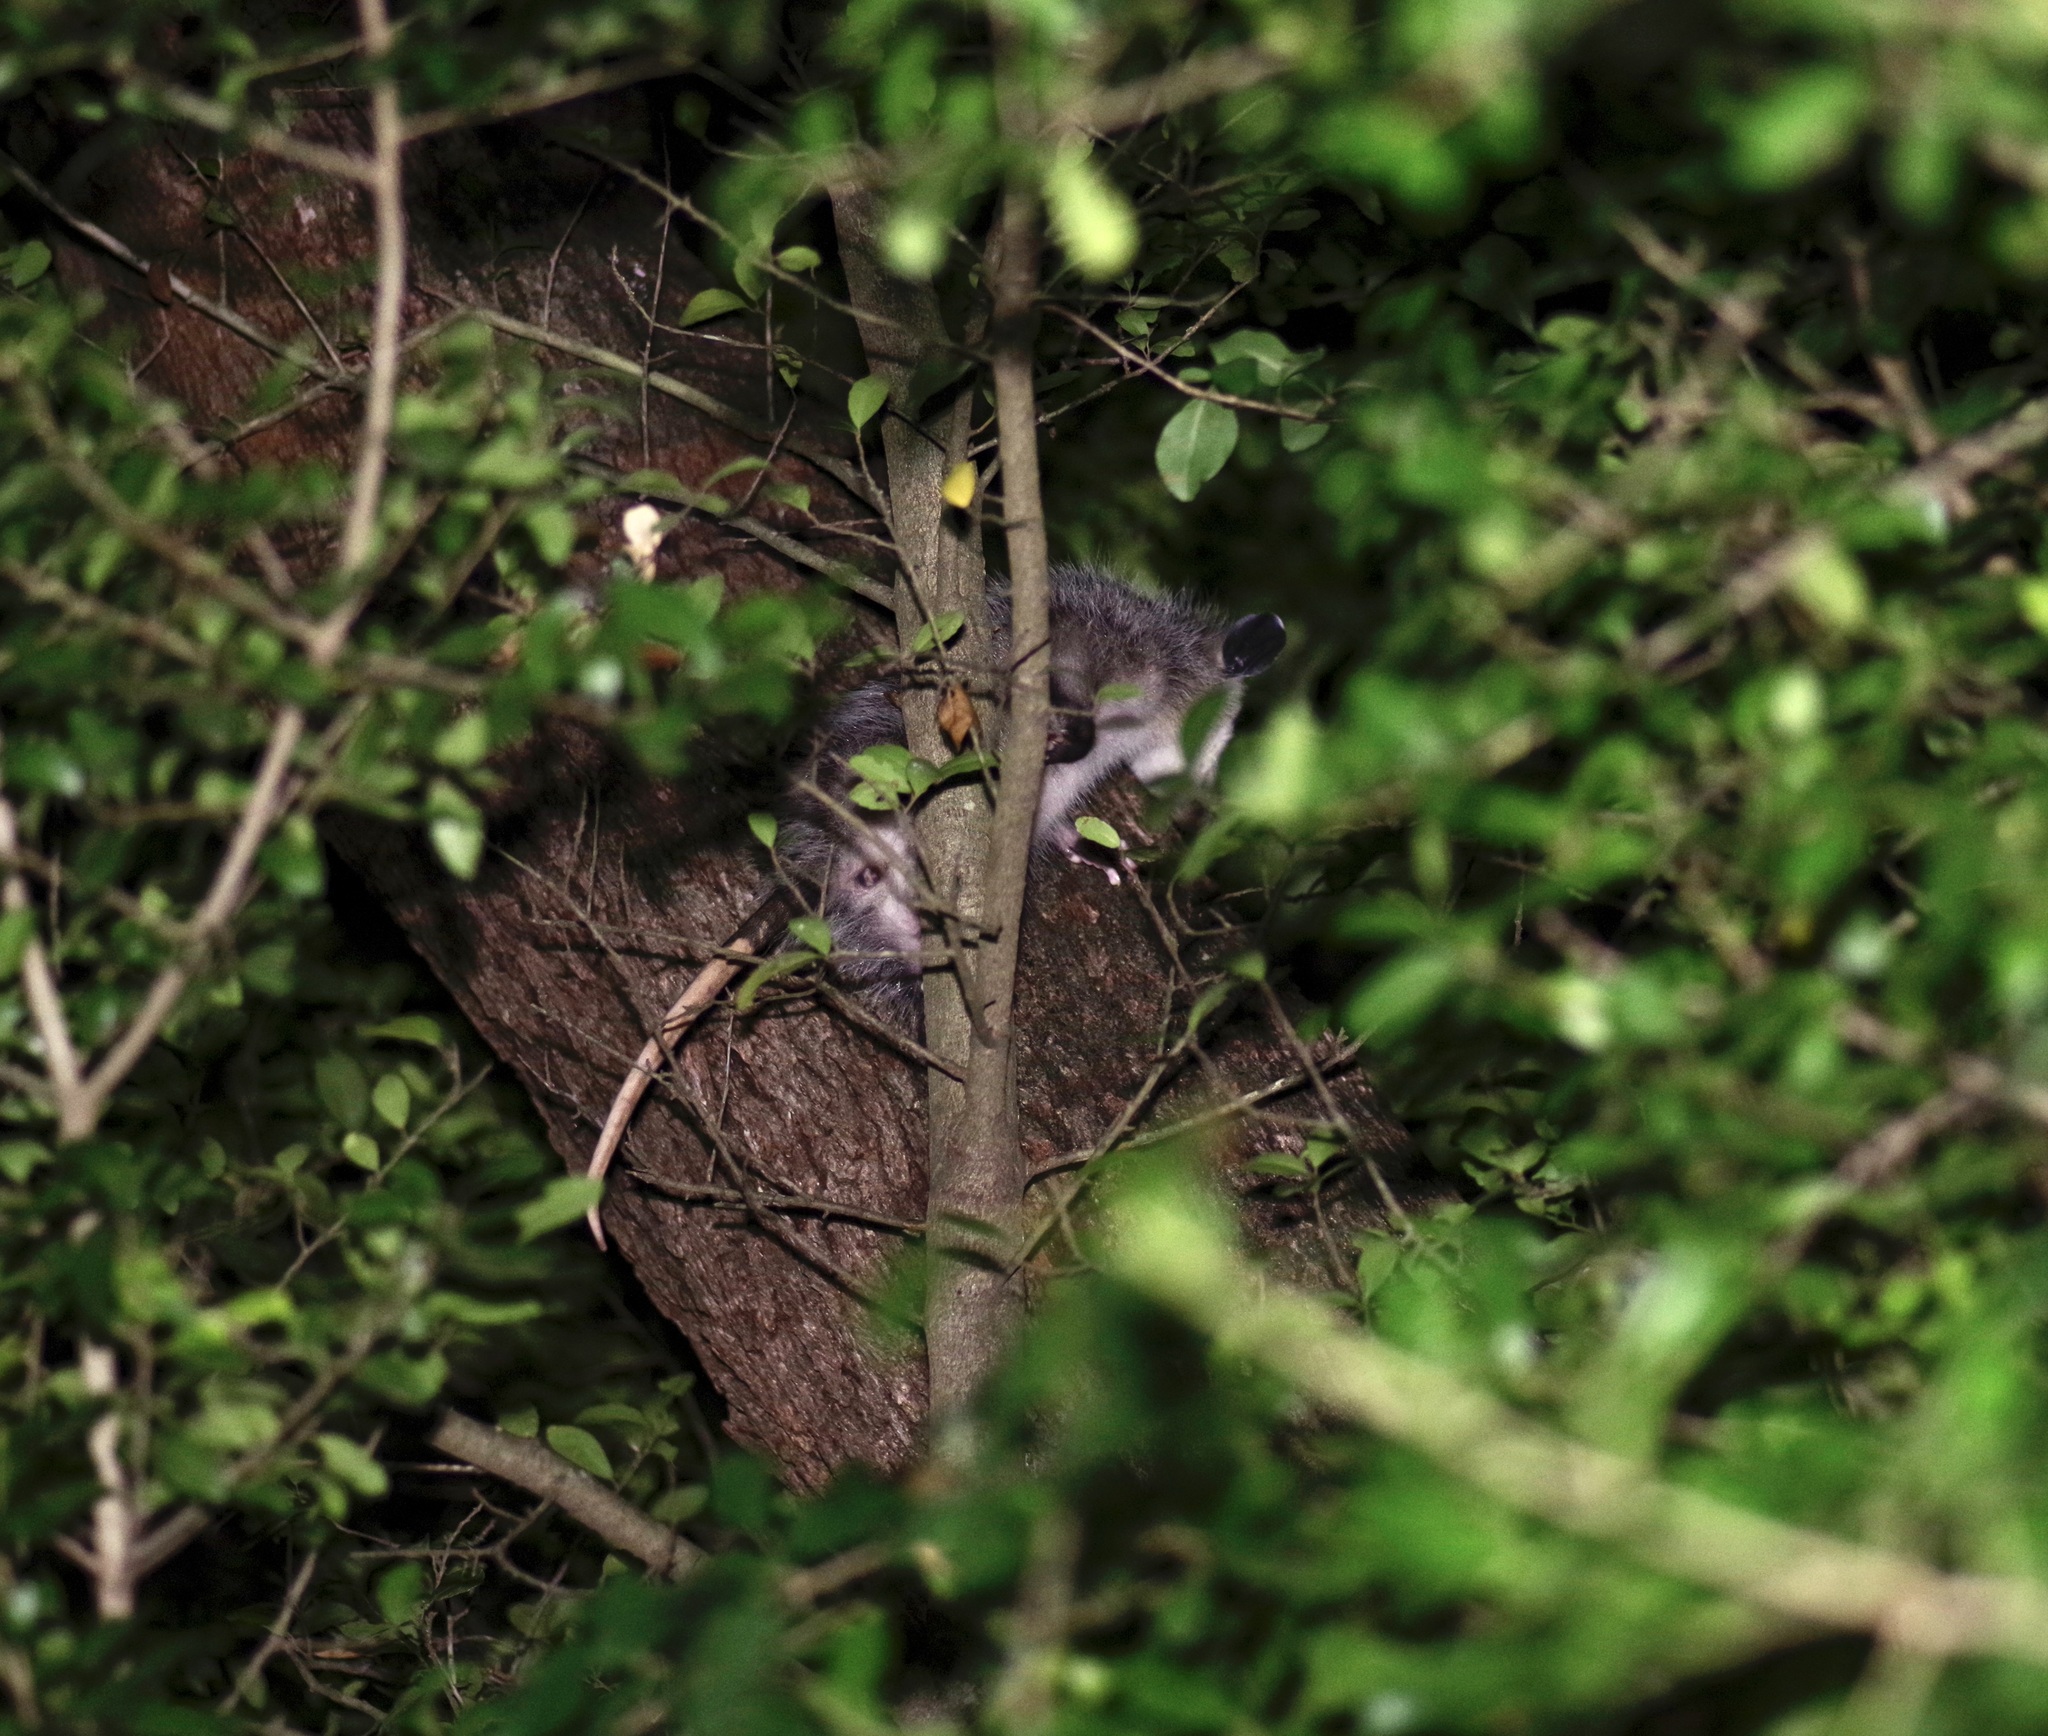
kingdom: Animalia
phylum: Chordata
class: Mammalia
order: Didelphimorphia
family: Didelphidae
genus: Didelphis
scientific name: Didelphis virginiana
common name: Virginia opossum
